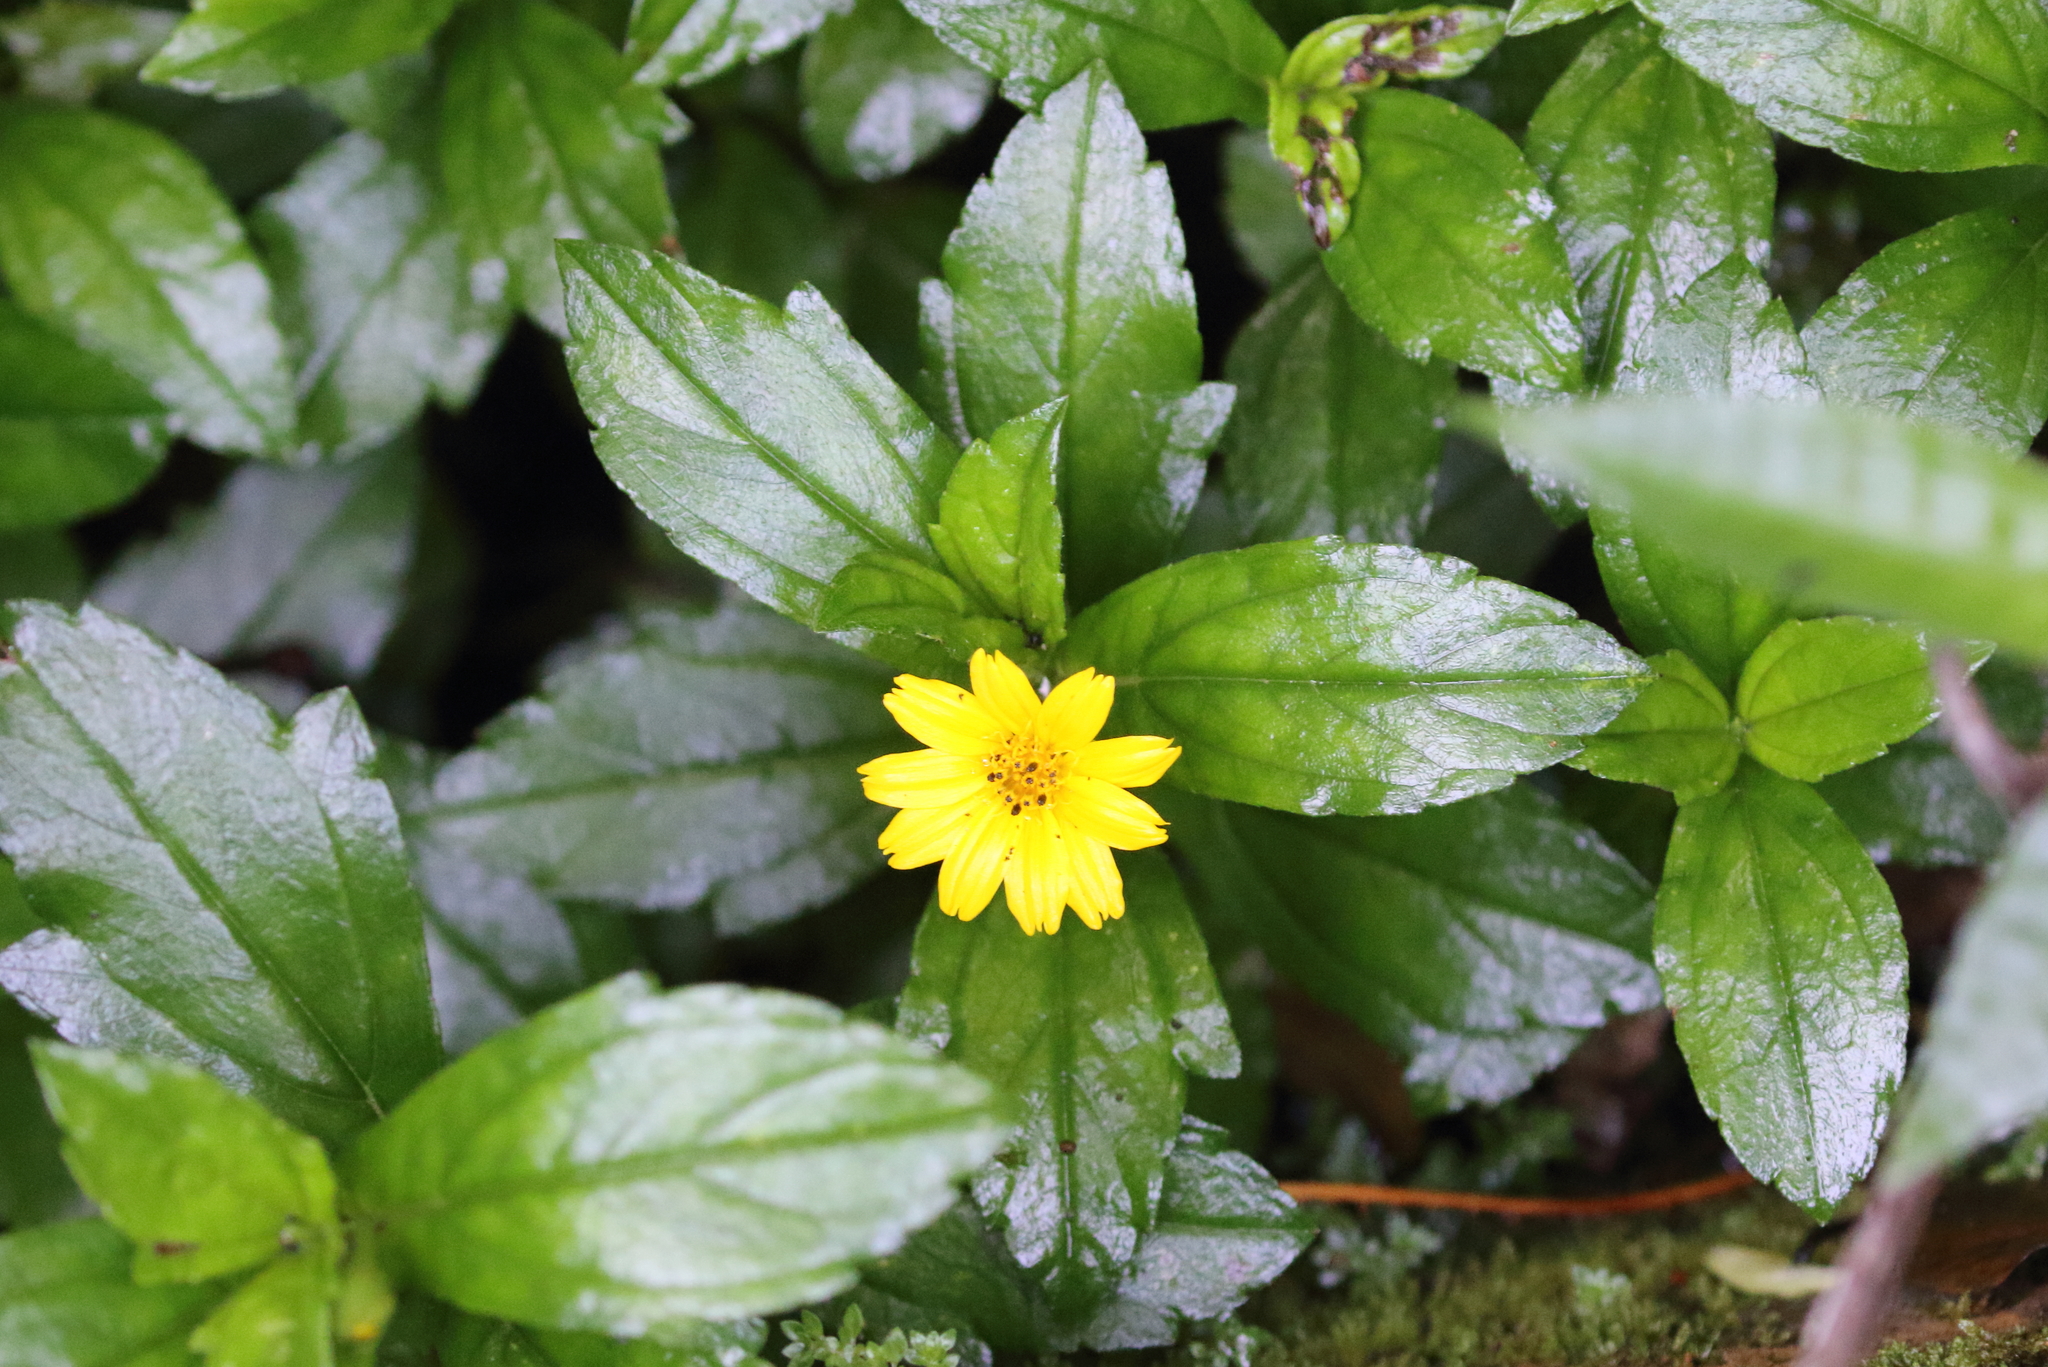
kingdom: Plantae
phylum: Tracheophyta
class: Magnoliopsida
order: Asterales
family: Asteraceae
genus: Sphagneticola
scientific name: Sphagneticola trilobata
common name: Bay biscayne creeping-oxeye
